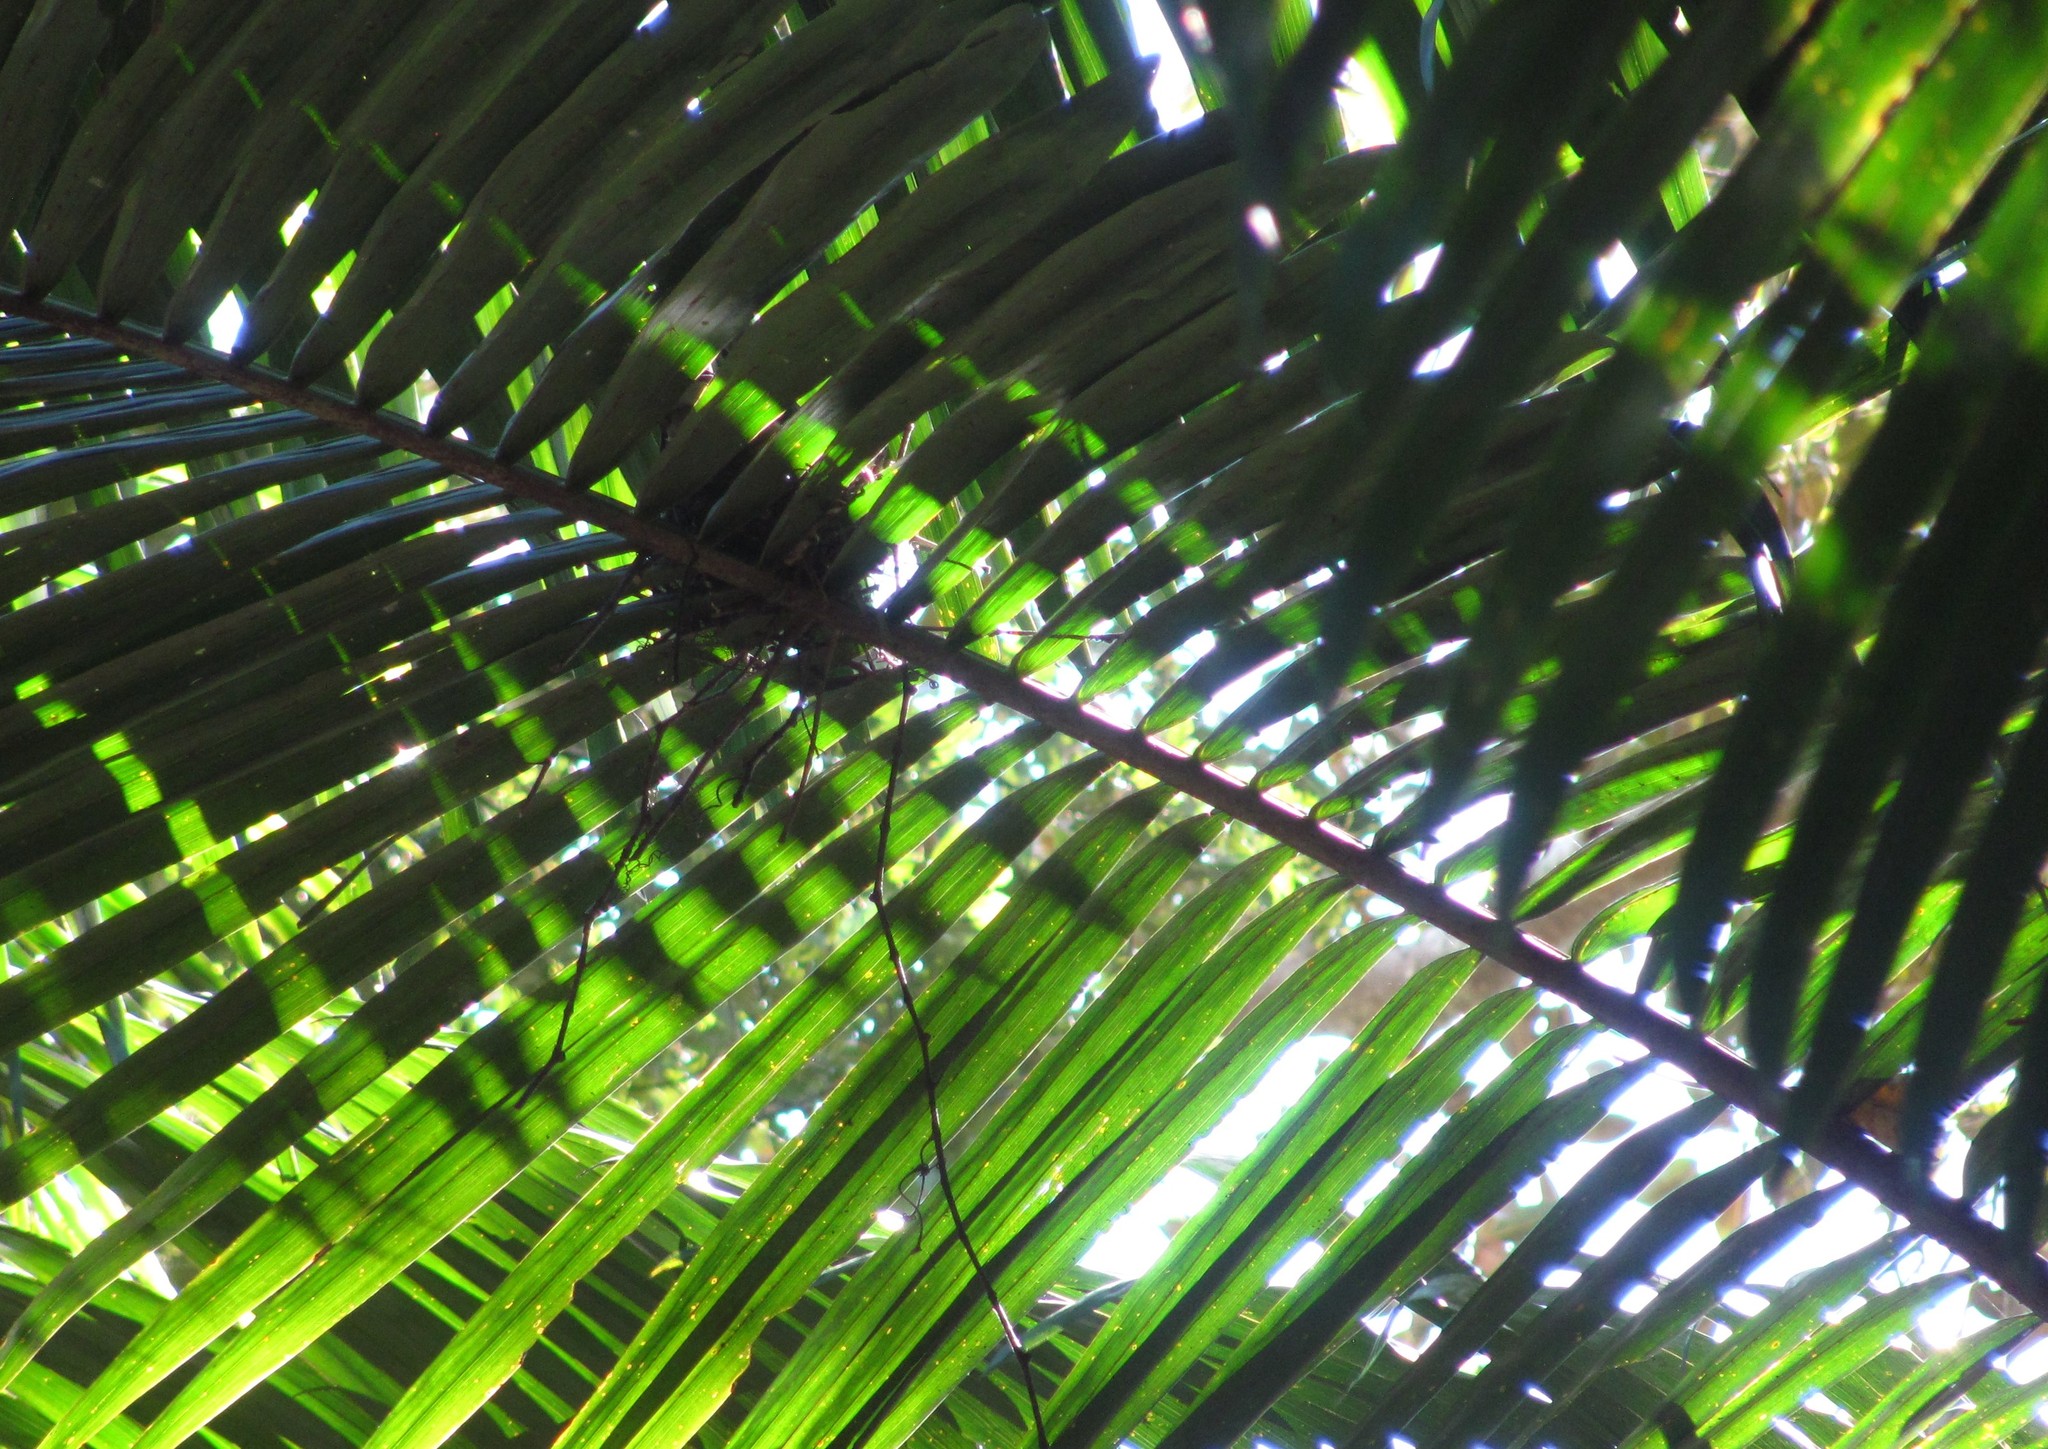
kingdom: Animalia
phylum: Chordata
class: Aves
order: Columbiformes
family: Columbidae
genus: Ptilinopus
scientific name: Ptilinopus magnificus
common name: Wompoo fruit dove
